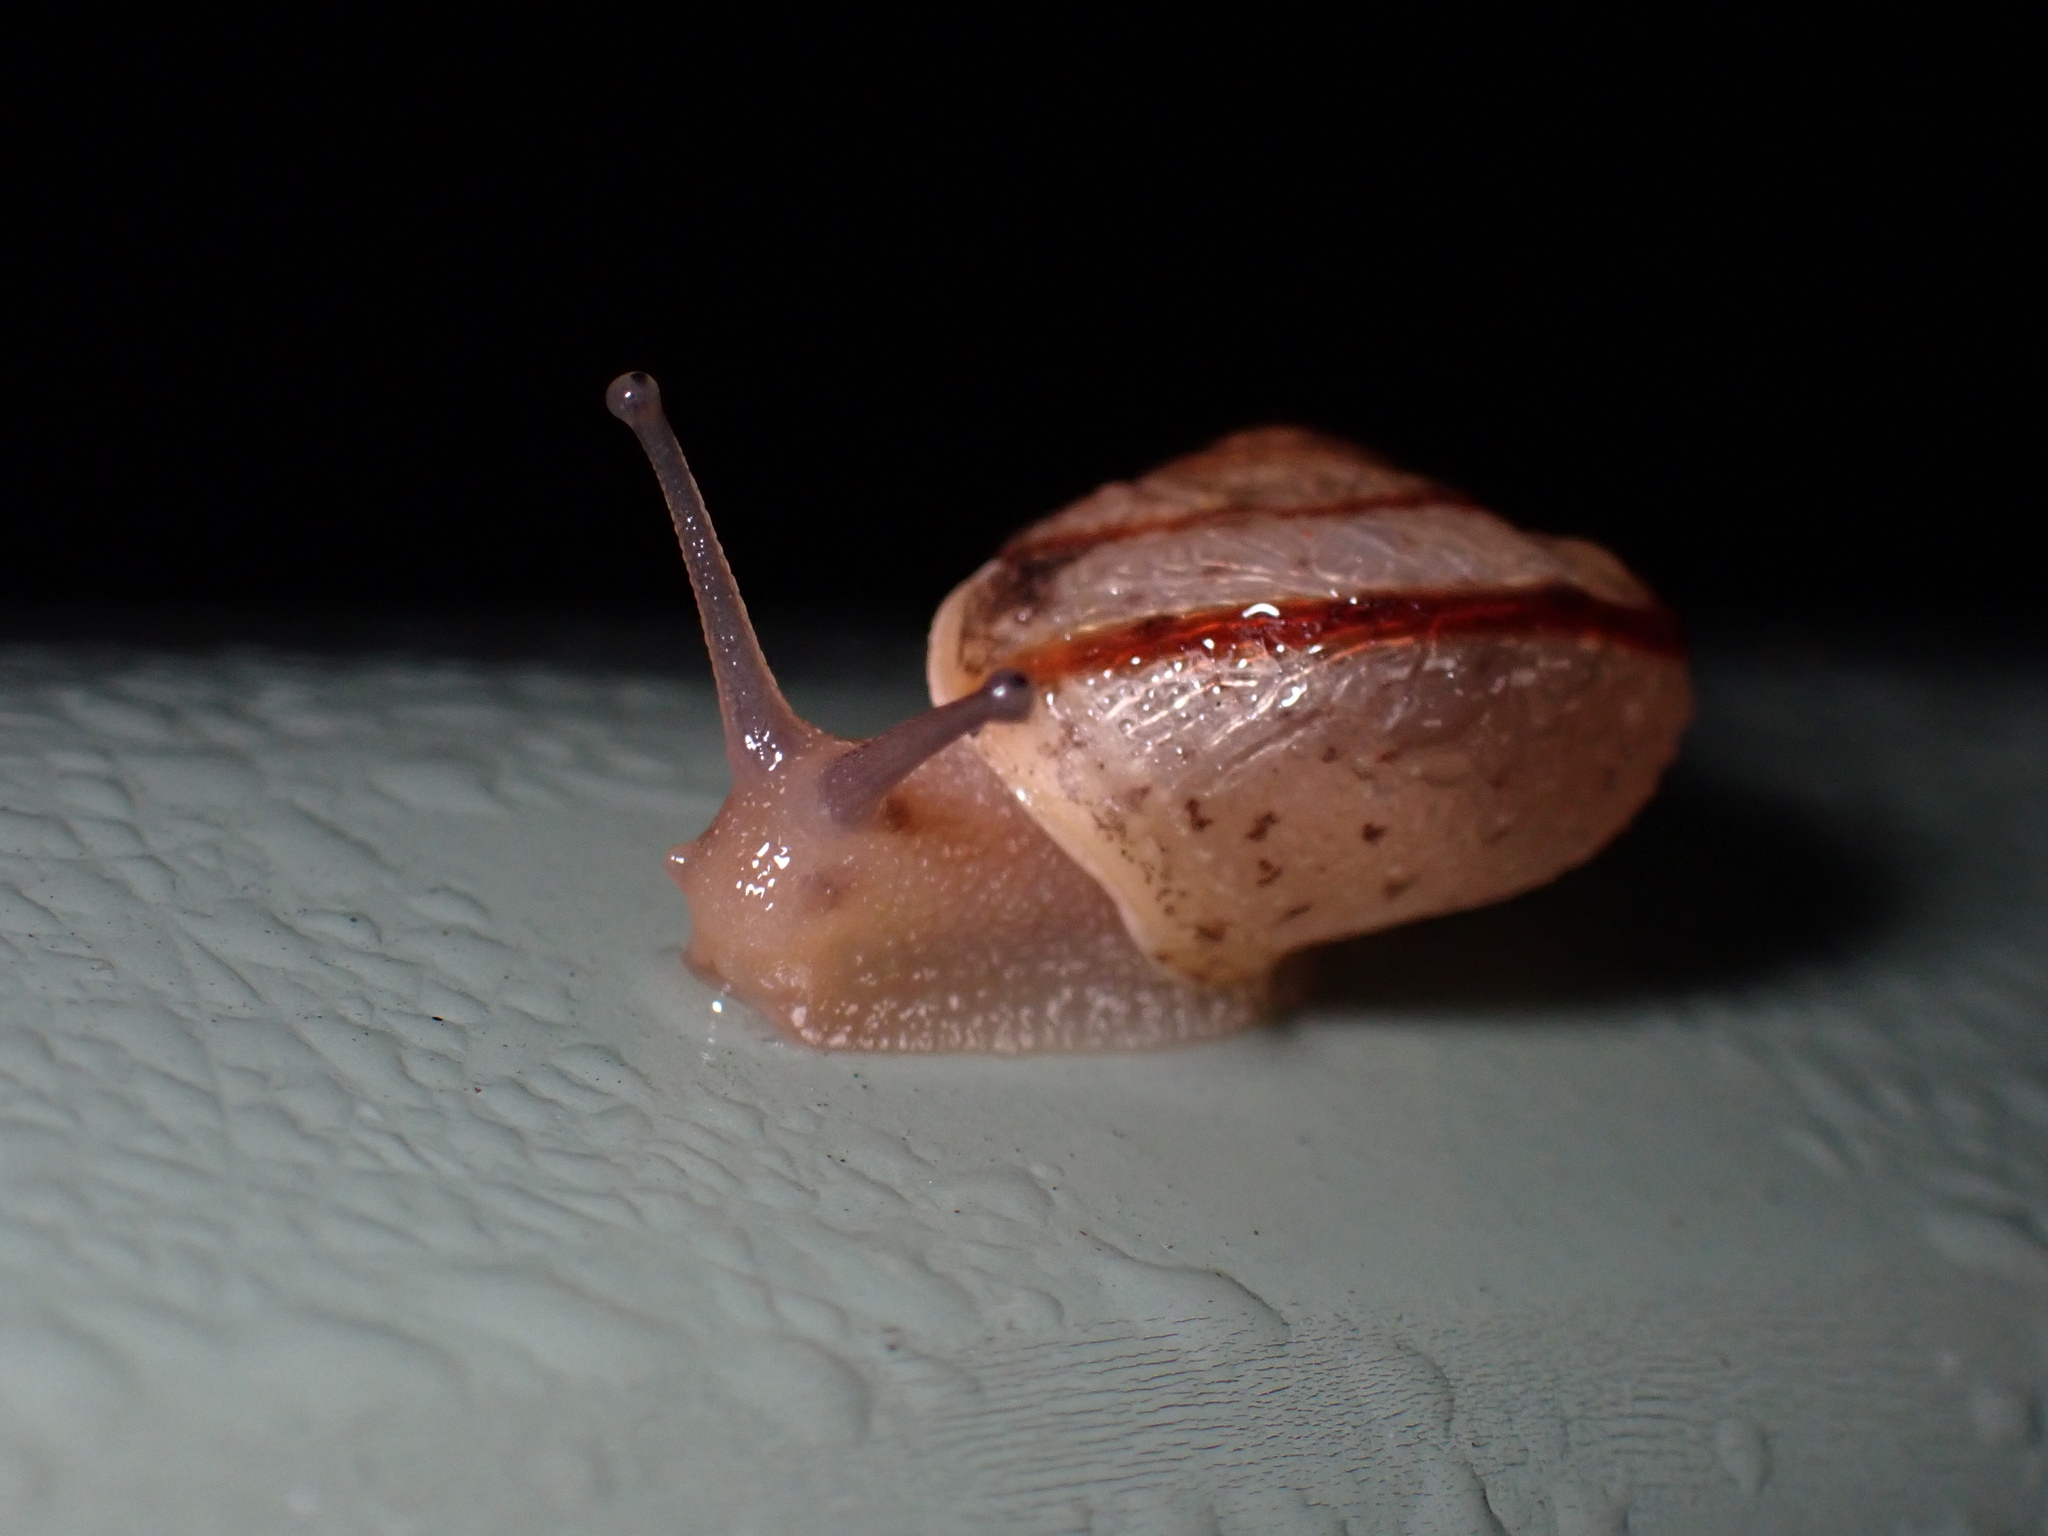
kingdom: Animalia
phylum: Mollusca
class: Gastropoda
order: Stylommatophora
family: Camaenidae
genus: Bradybaena
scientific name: Bradybaena similaris
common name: Asian trampsnail
